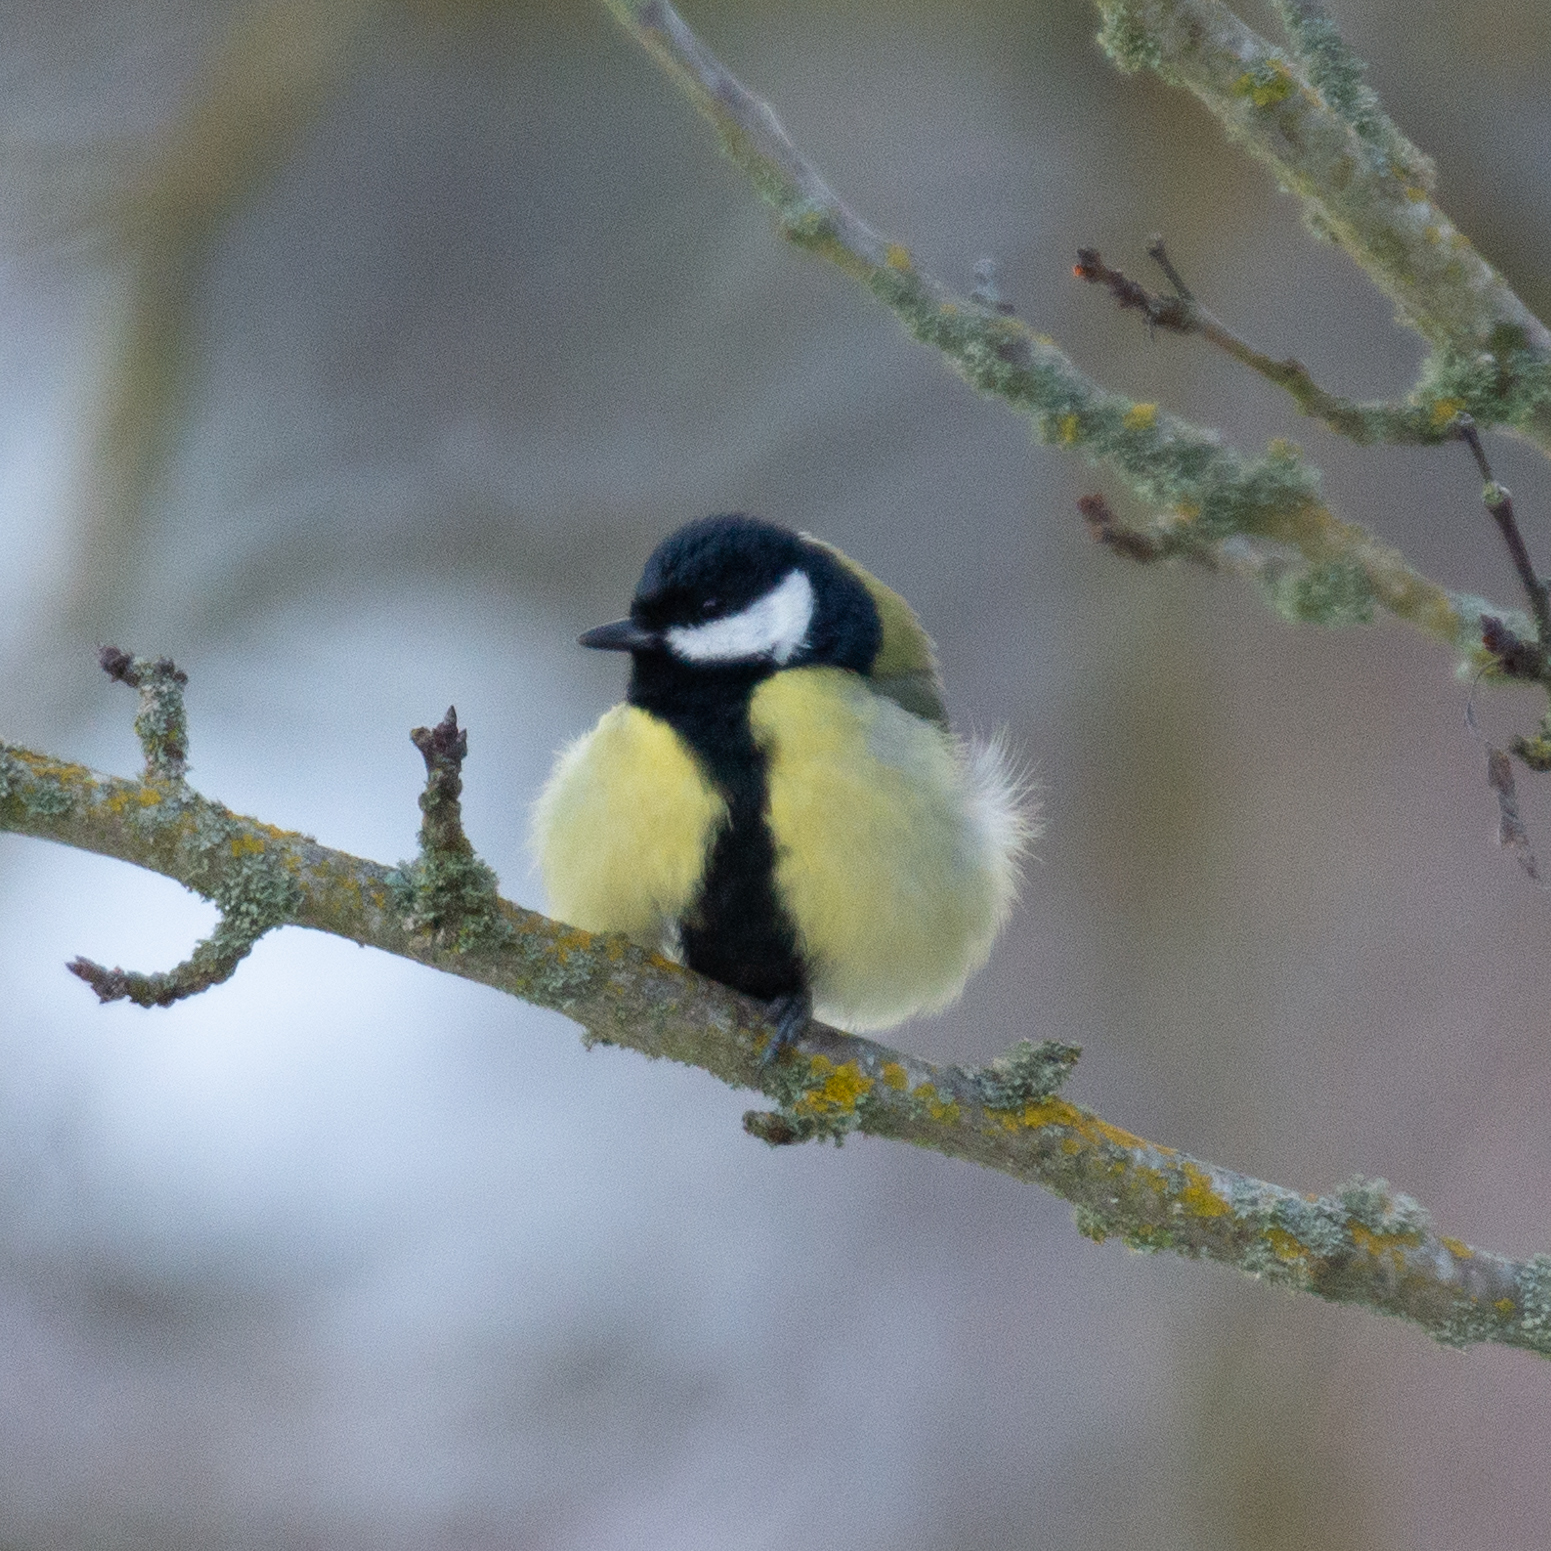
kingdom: Animalia
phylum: Chordata
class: Aves
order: Passeriformes
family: Paridae
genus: Parus
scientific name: Parus major
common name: Great tit
